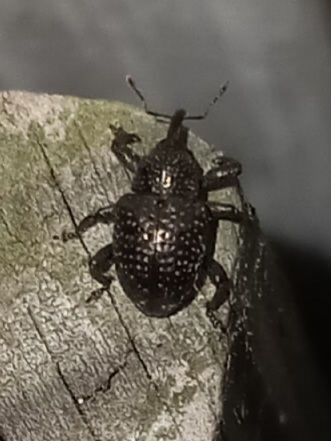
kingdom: Animalia
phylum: Arthropoda
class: Insecta
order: Coleoptera
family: Curculionidae
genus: Chalcodermus
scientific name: Chalcodermus aeneus
